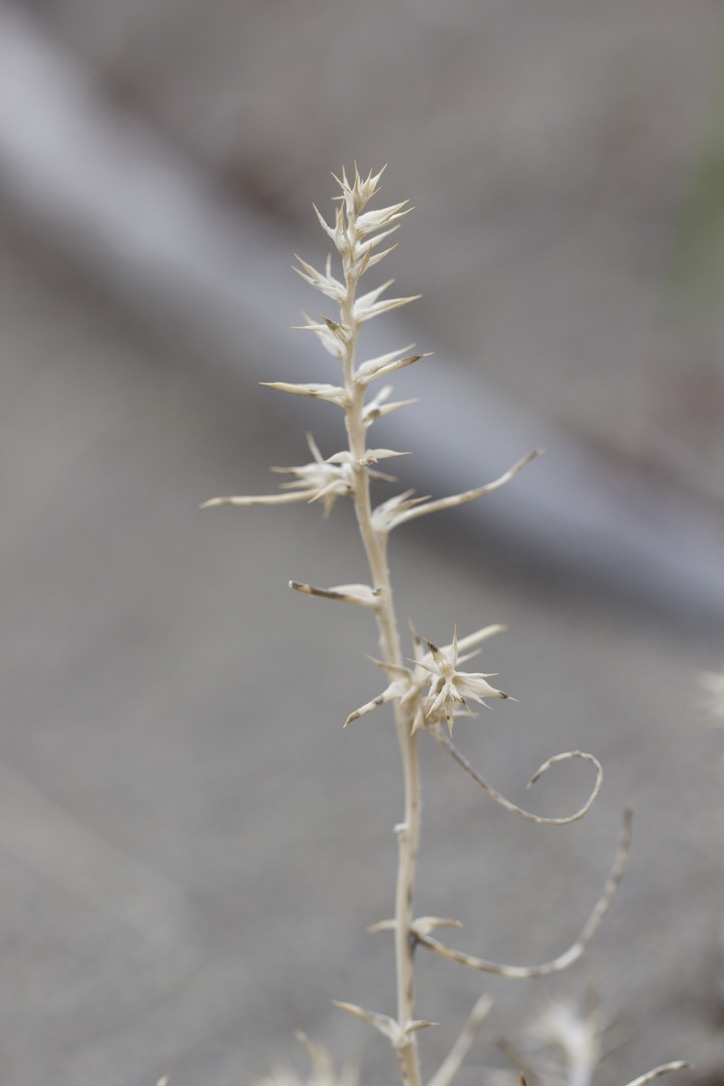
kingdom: Plantae
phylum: Tracheophyta
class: Magnoliopsida
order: Caryophyllales
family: Amaranthaceae
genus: Salsola
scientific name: Salsola tragus
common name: Prickly russian thistle
